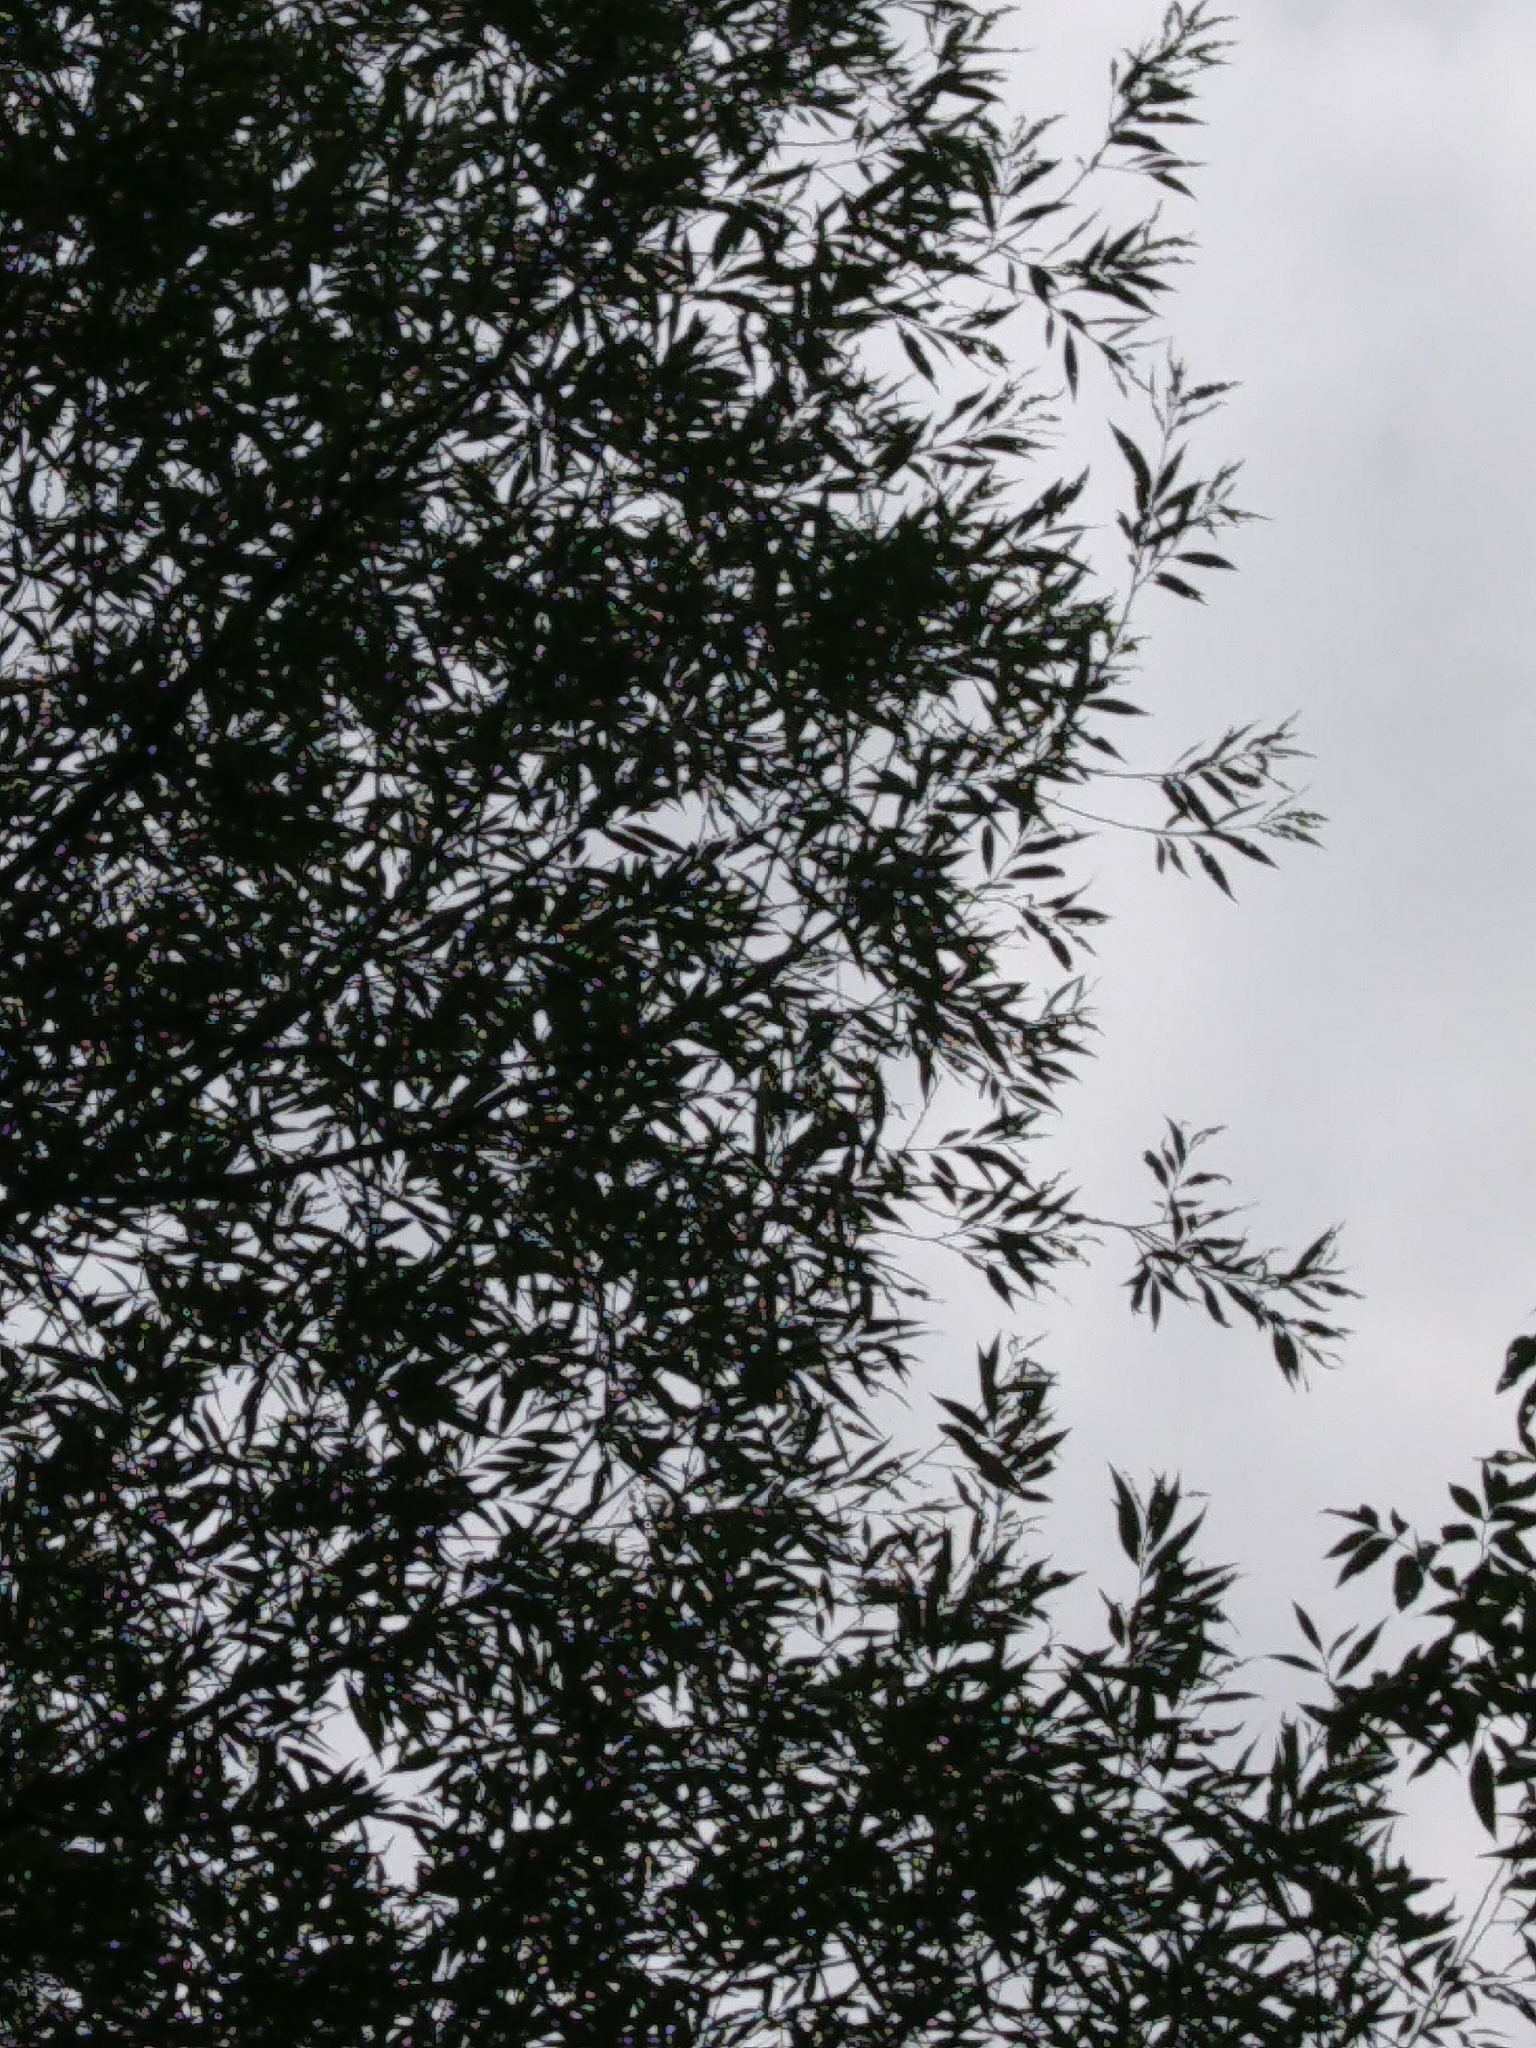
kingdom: Plantae
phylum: Tracheophyta
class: Magnoliopsida
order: Malpighiales
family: Salicaceae
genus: Salix
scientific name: Salix nigra
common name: Black willow
